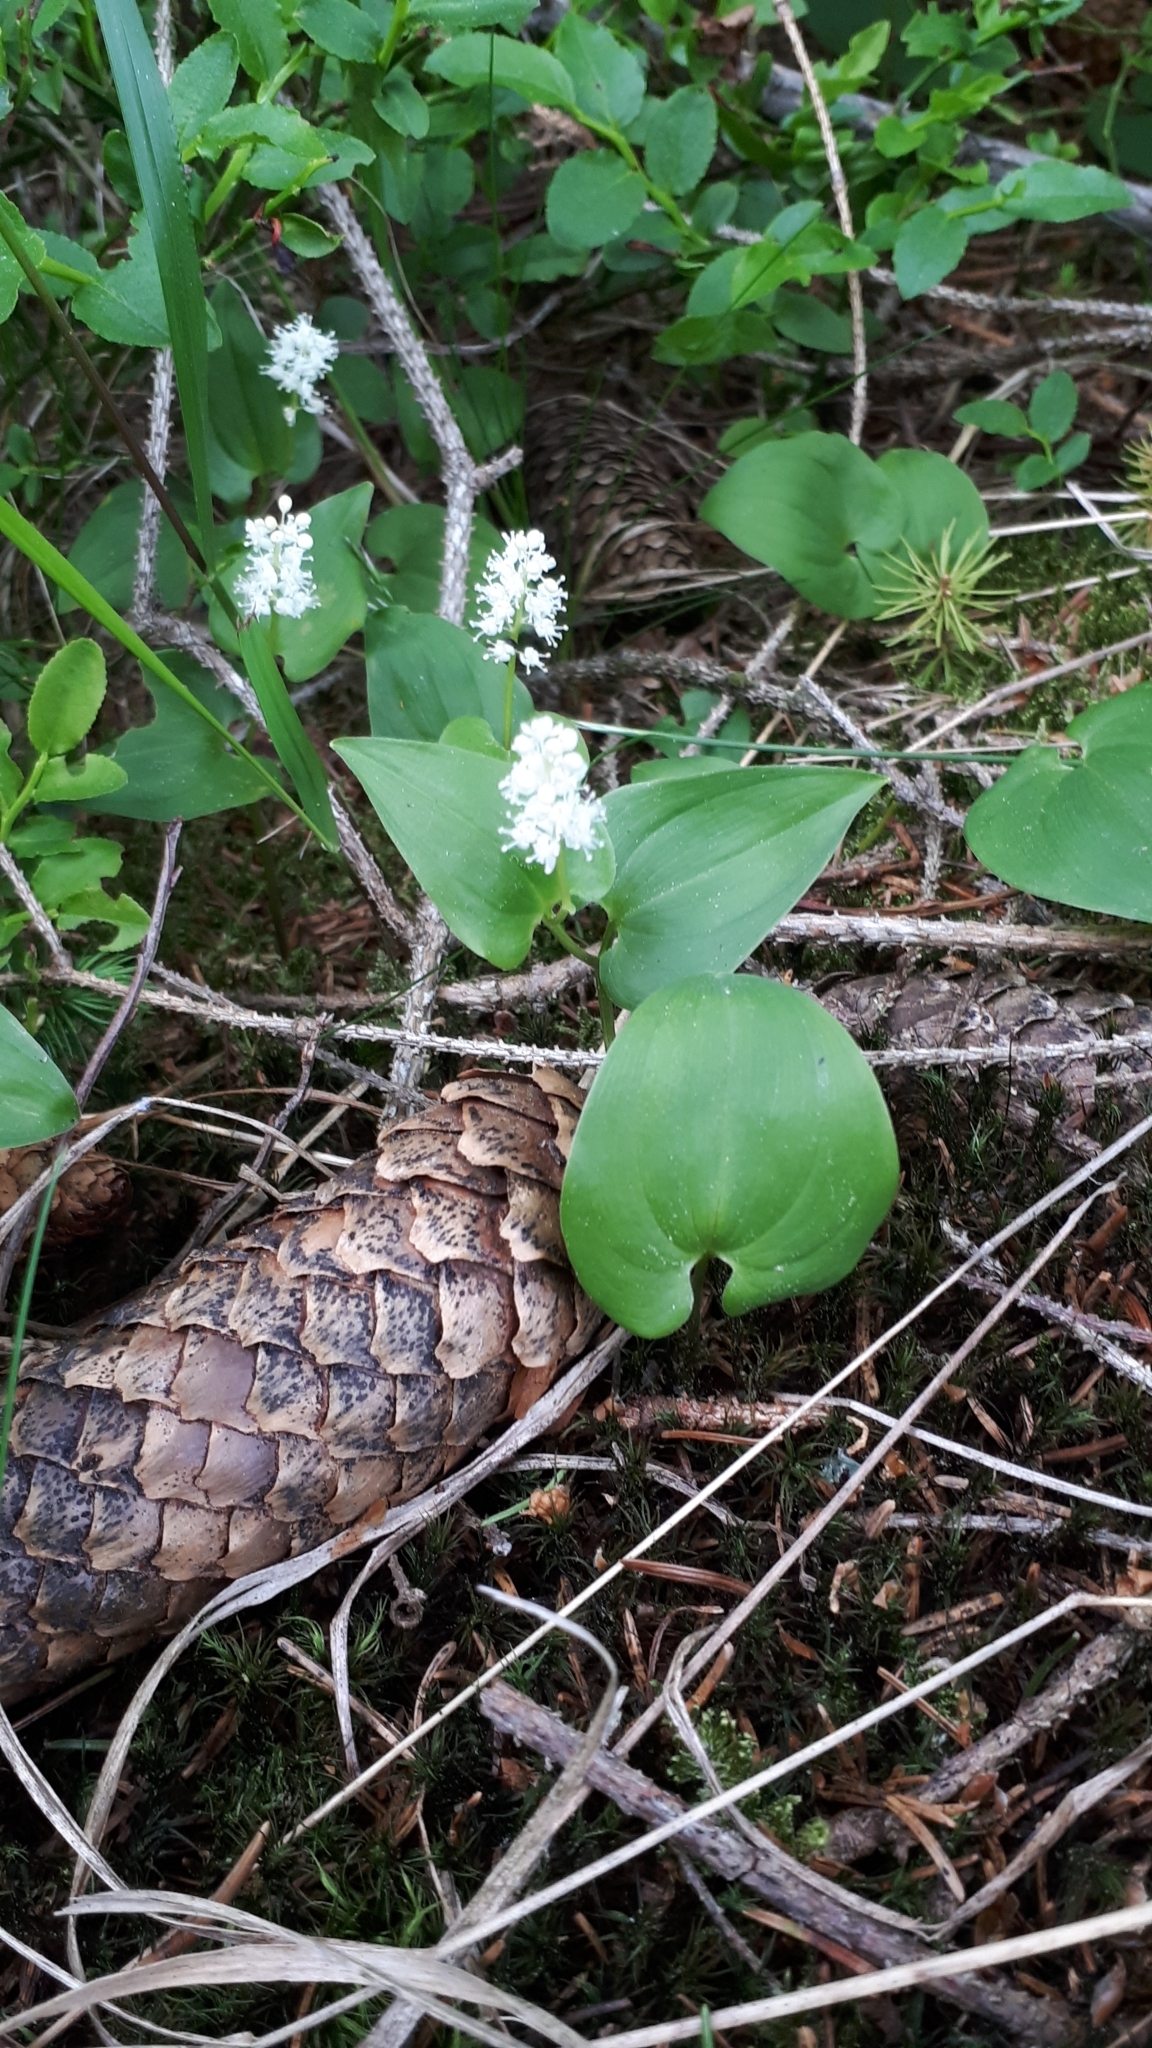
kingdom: Plantae
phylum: Tracheophyta
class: Liliopsida
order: Asparagales
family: Asparagaceae
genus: Maianthemum
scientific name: Maianthemum bifolium
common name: May lily
